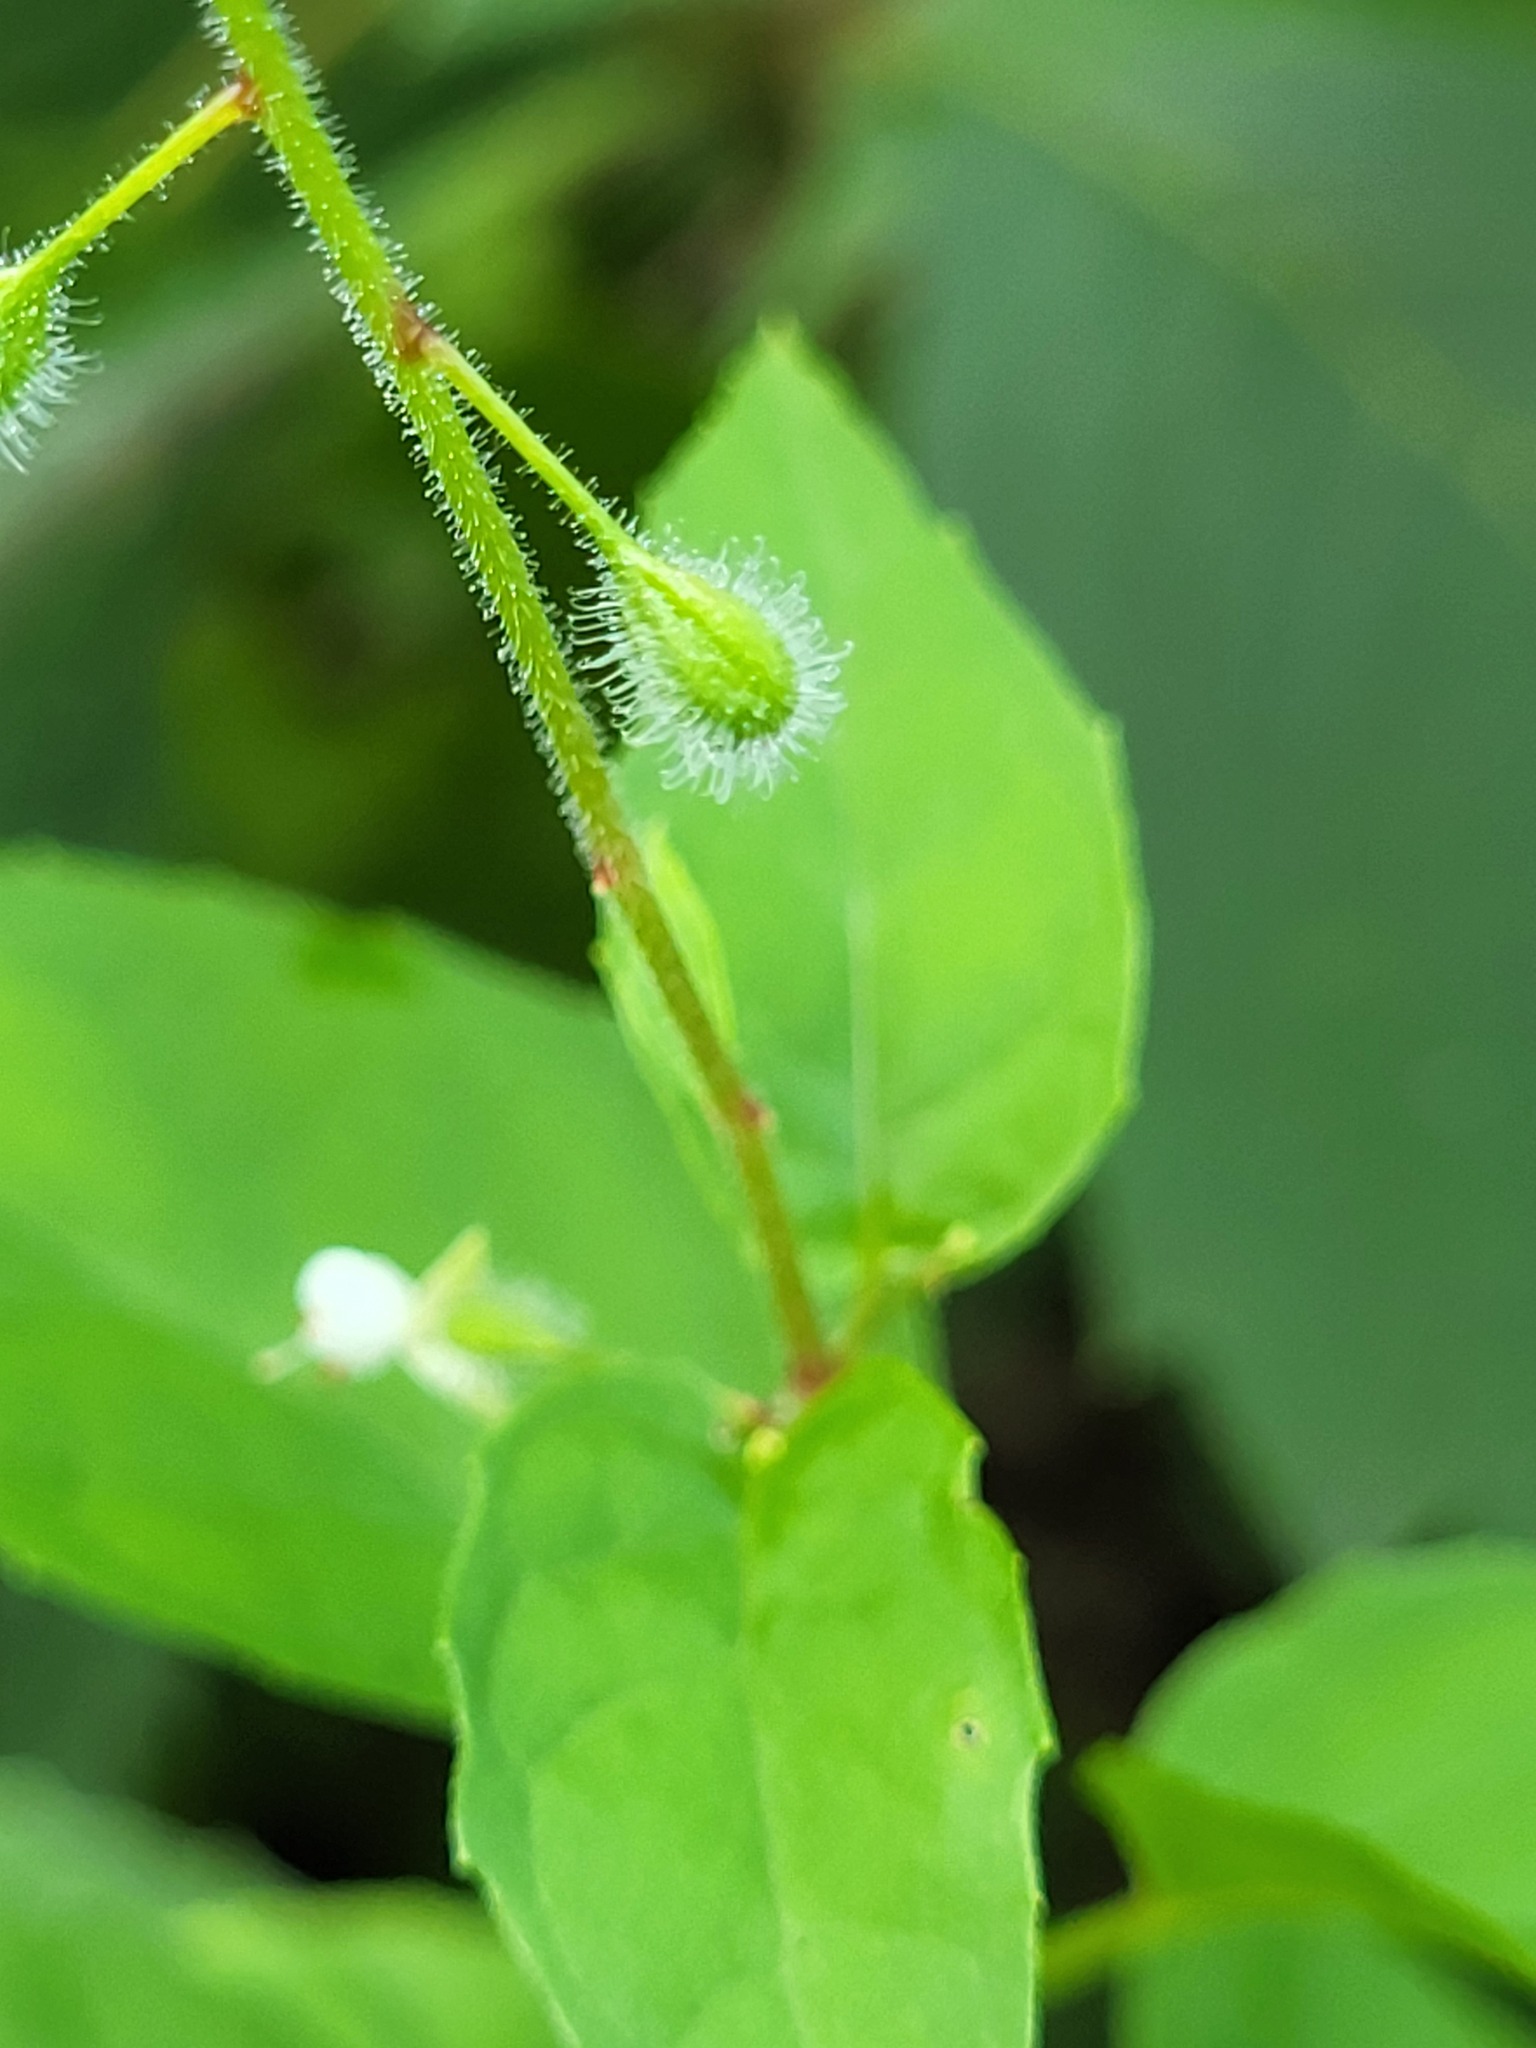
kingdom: Plantae
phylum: Tracheophyta
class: Magnoliopsida
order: Myrtales
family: Onagraceae
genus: Circaea
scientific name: Circaea canadensis
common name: Broad-leaved enchanter's nightshade
